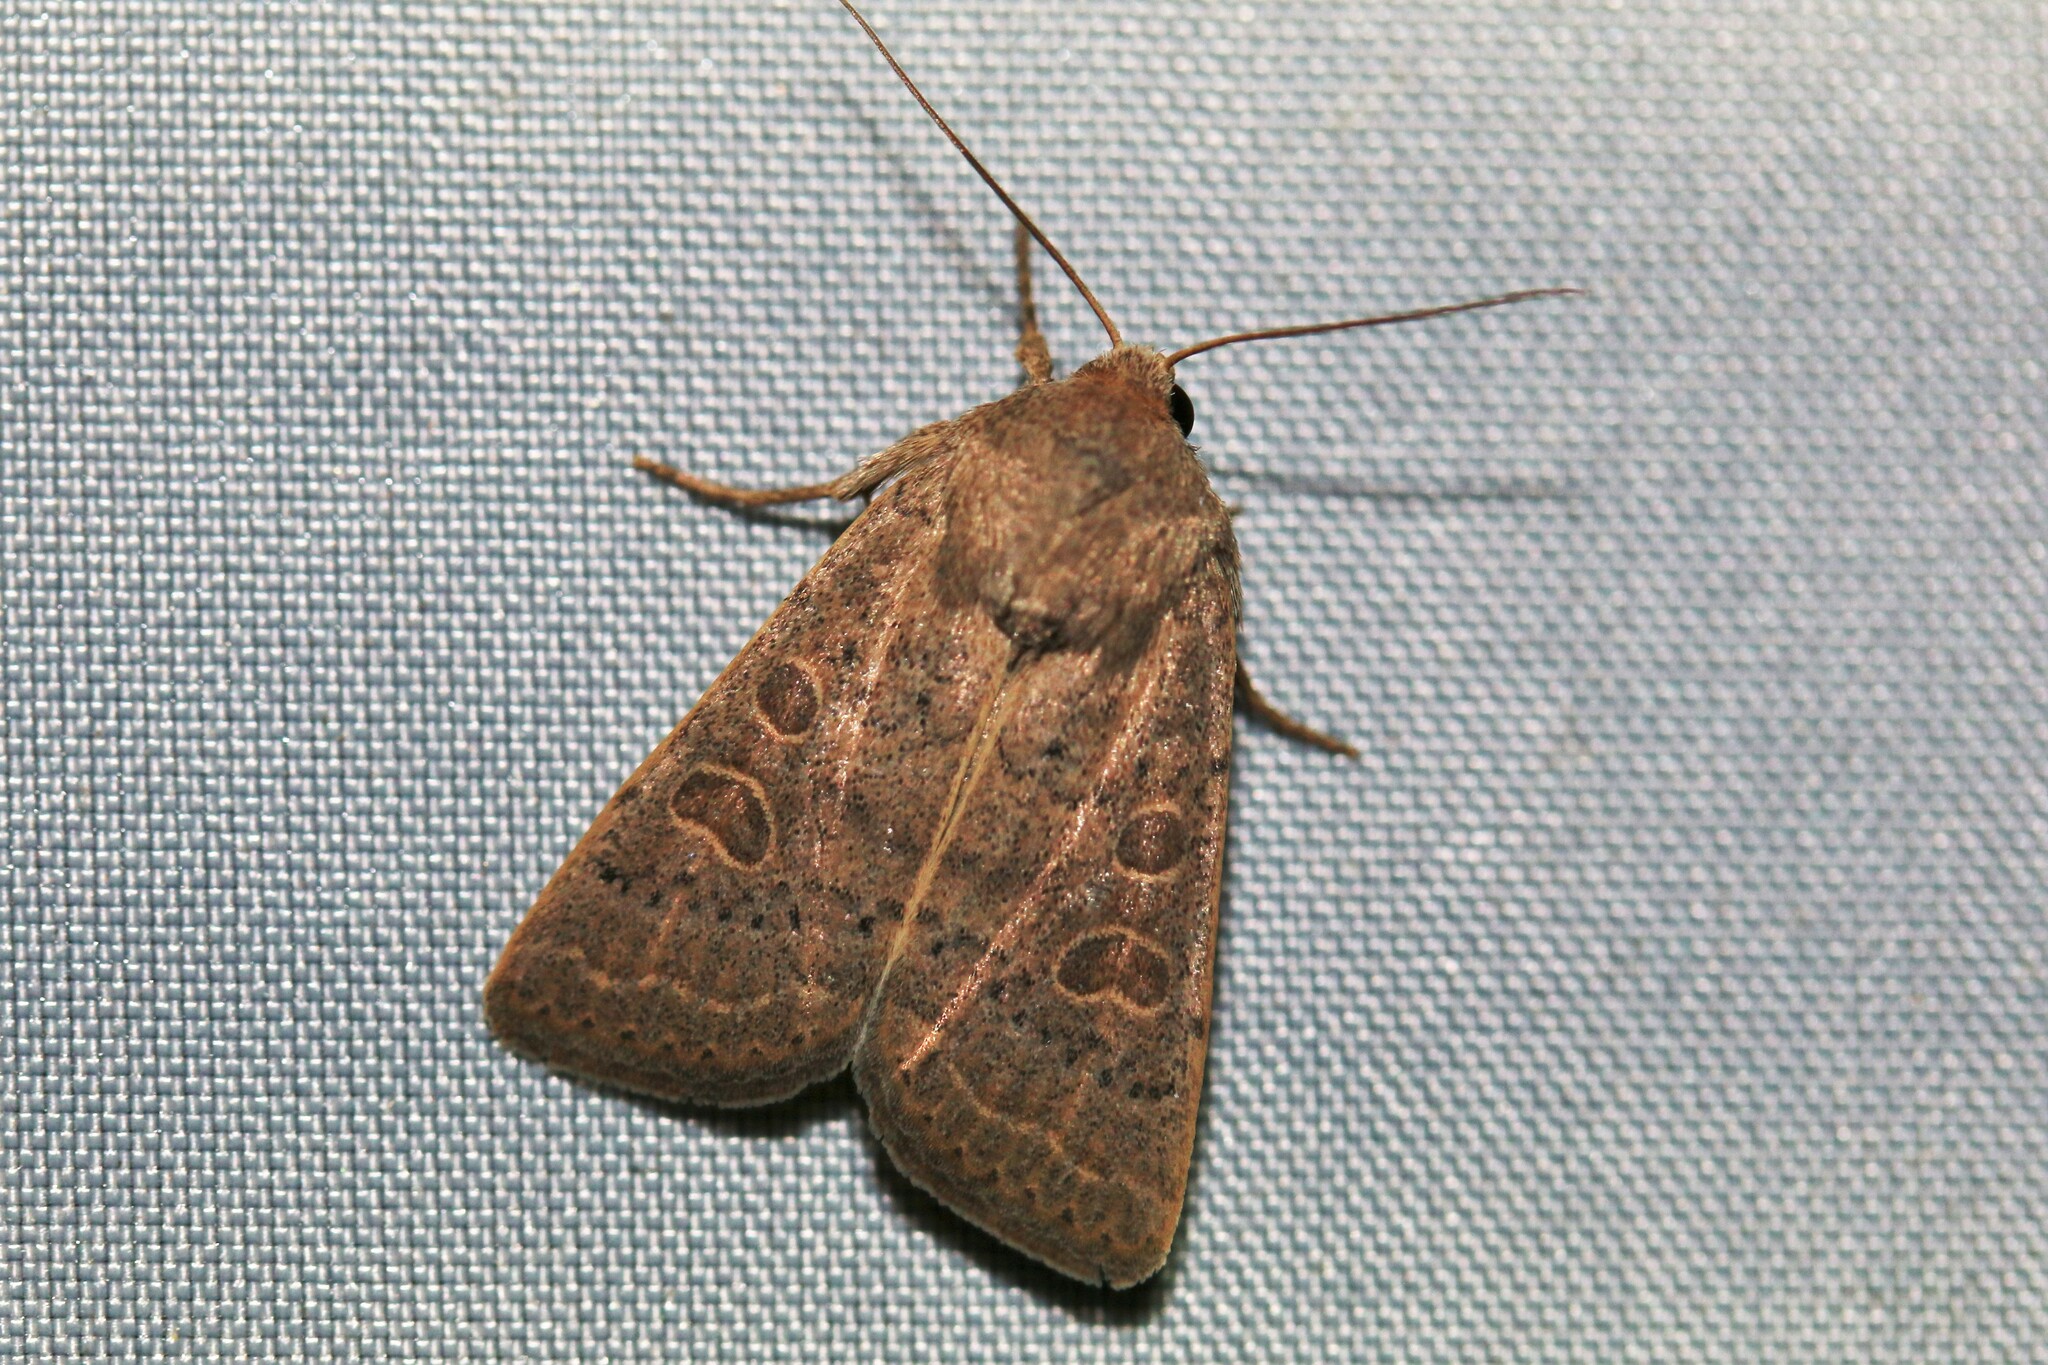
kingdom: Animalia
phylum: Arthropoda
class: Insecta
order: Lepidoptera
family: Noctuidae
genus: Hoplodrina
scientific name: Hoplodrina ambigua
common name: Vine's rustic
